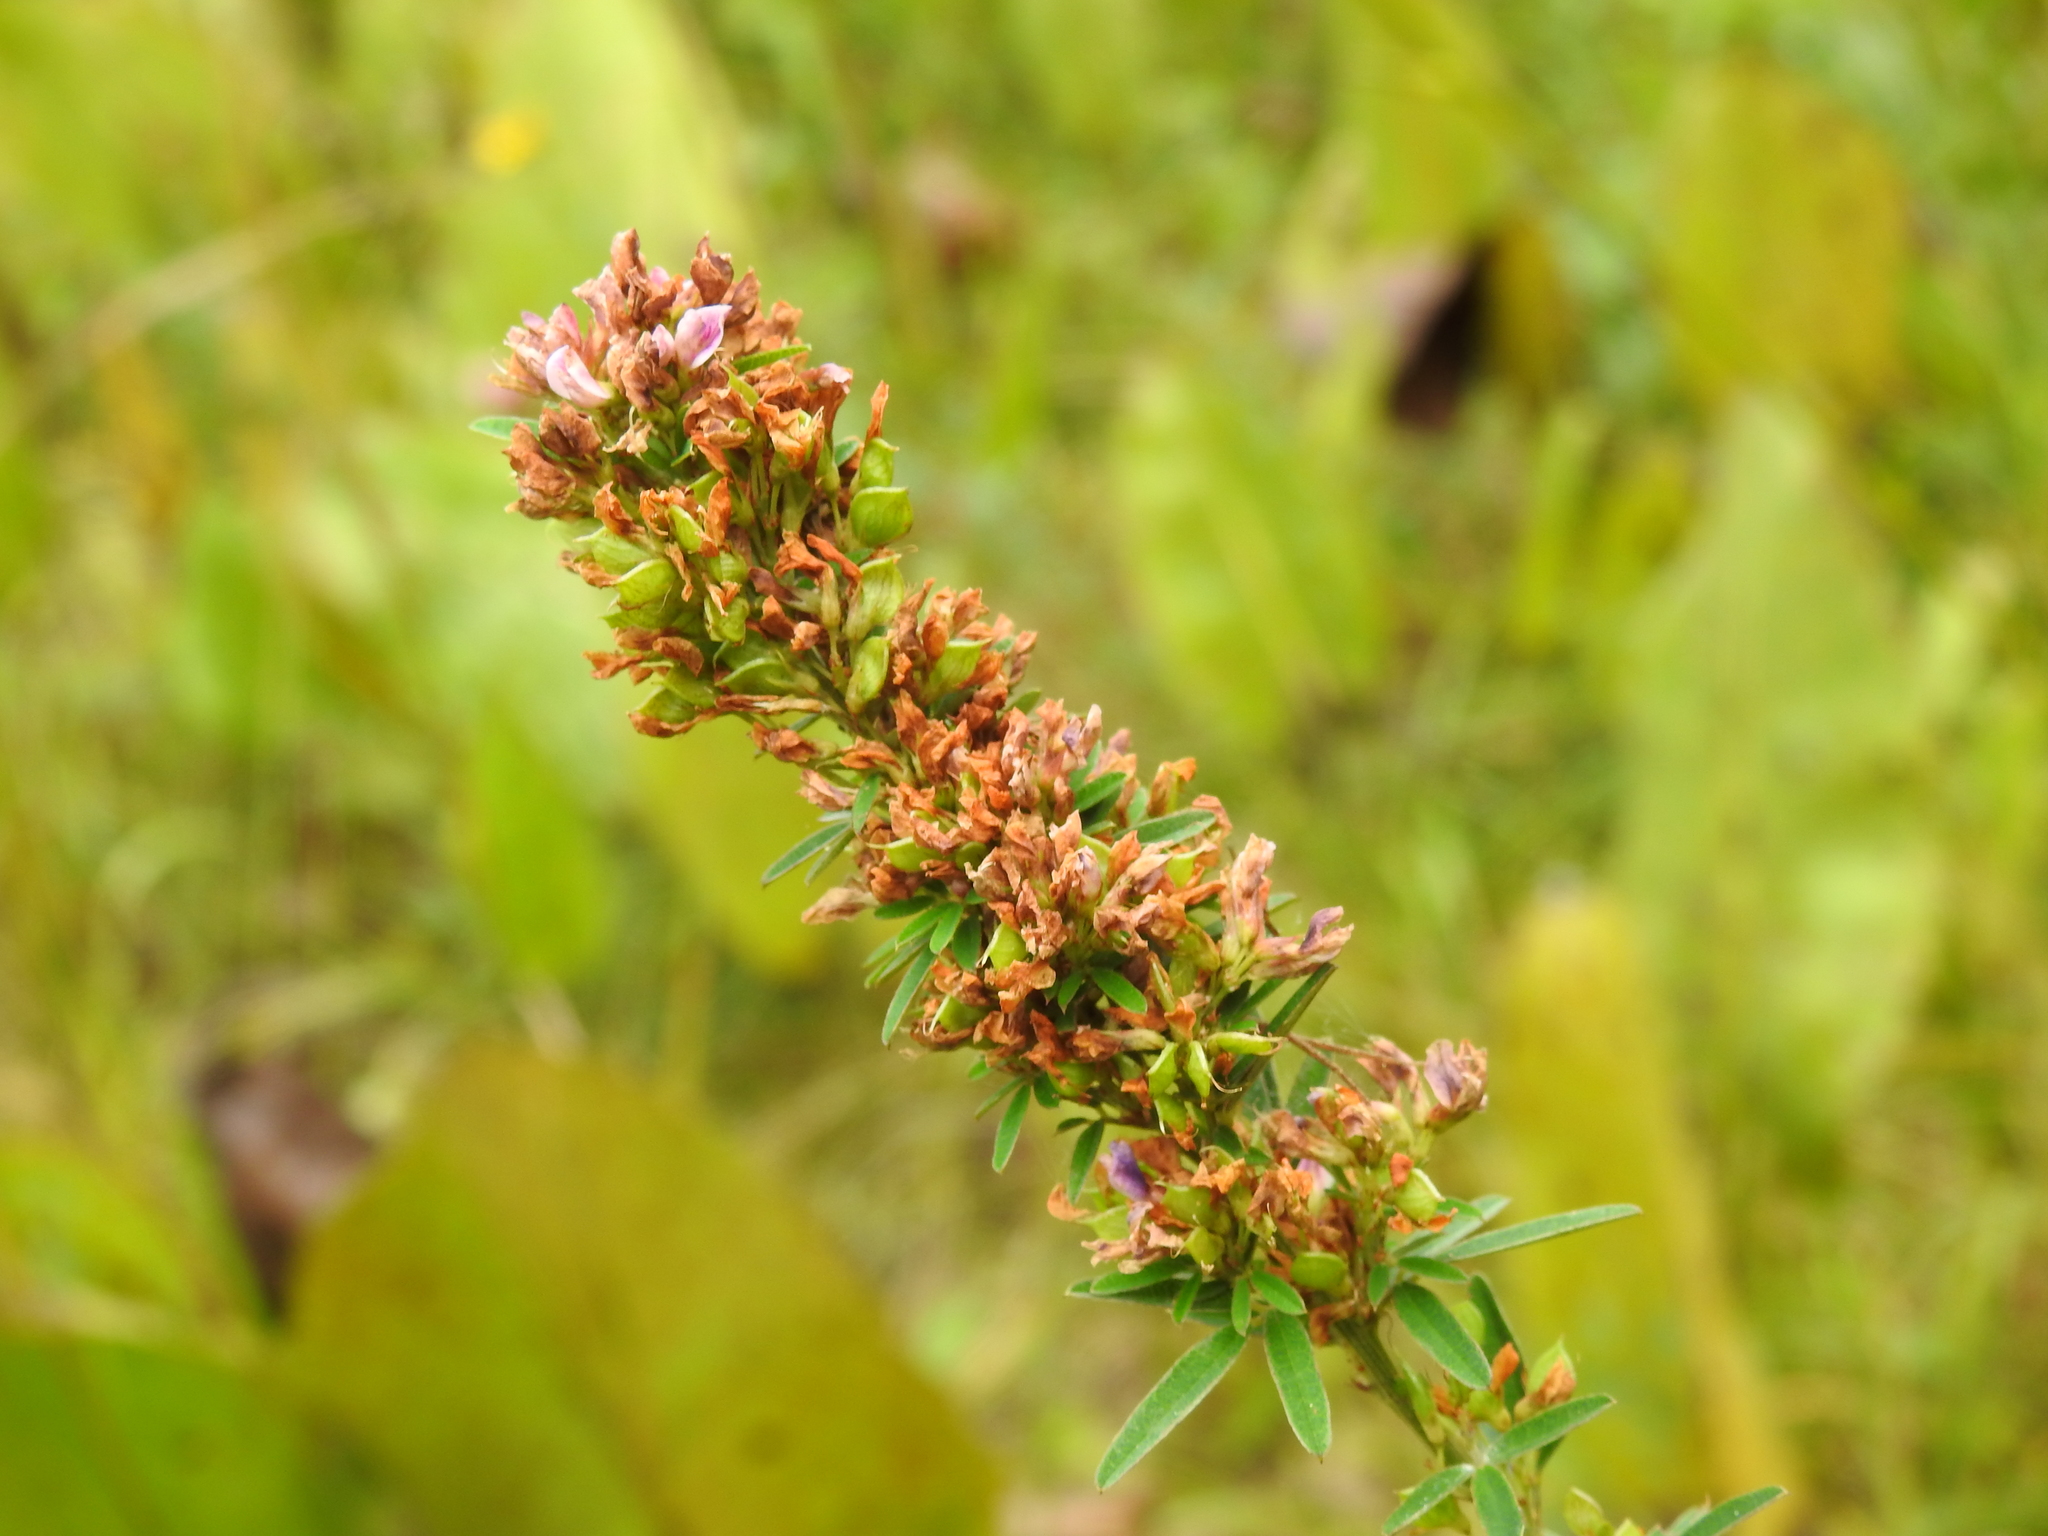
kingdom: Plantae
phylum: Tracheophyta
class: Magnoliopsida
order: Fabales
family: Fabaceae
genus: Lespedeza
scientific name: Lespedeza virginica
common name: Slender bush-clover
